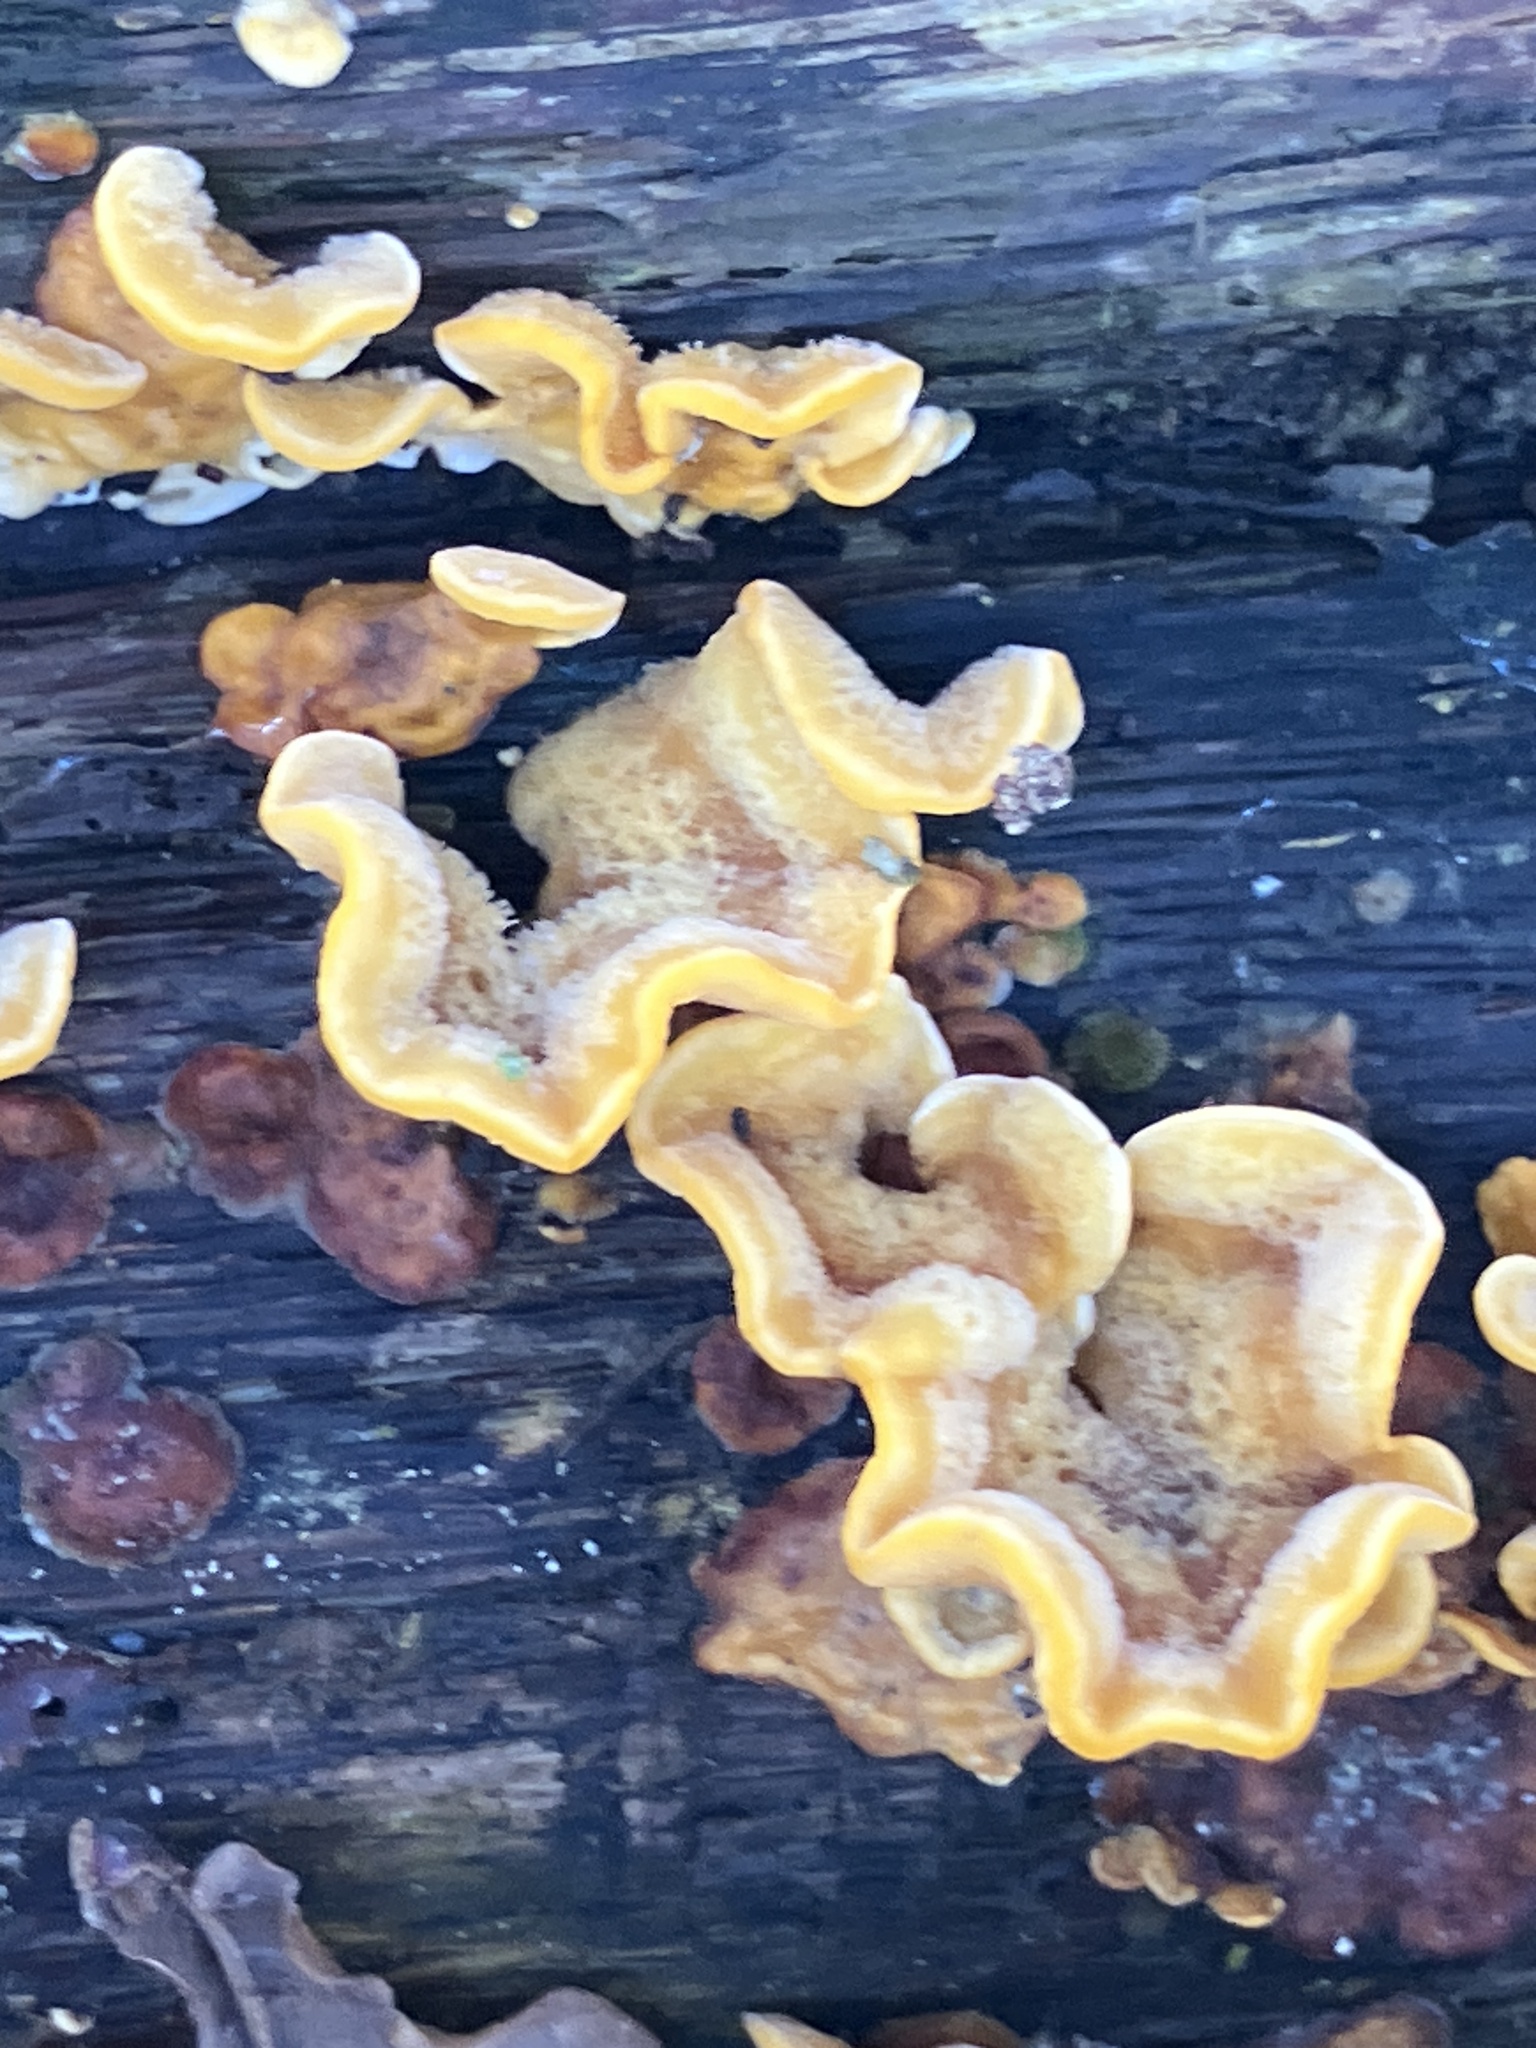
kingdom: Fungi
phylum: Basidiomycota
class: Agaricomycetes
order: Russulales
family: Stereaceae
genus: Stereum
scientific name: Stereum hirsutum
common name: Hairy curtain crust
